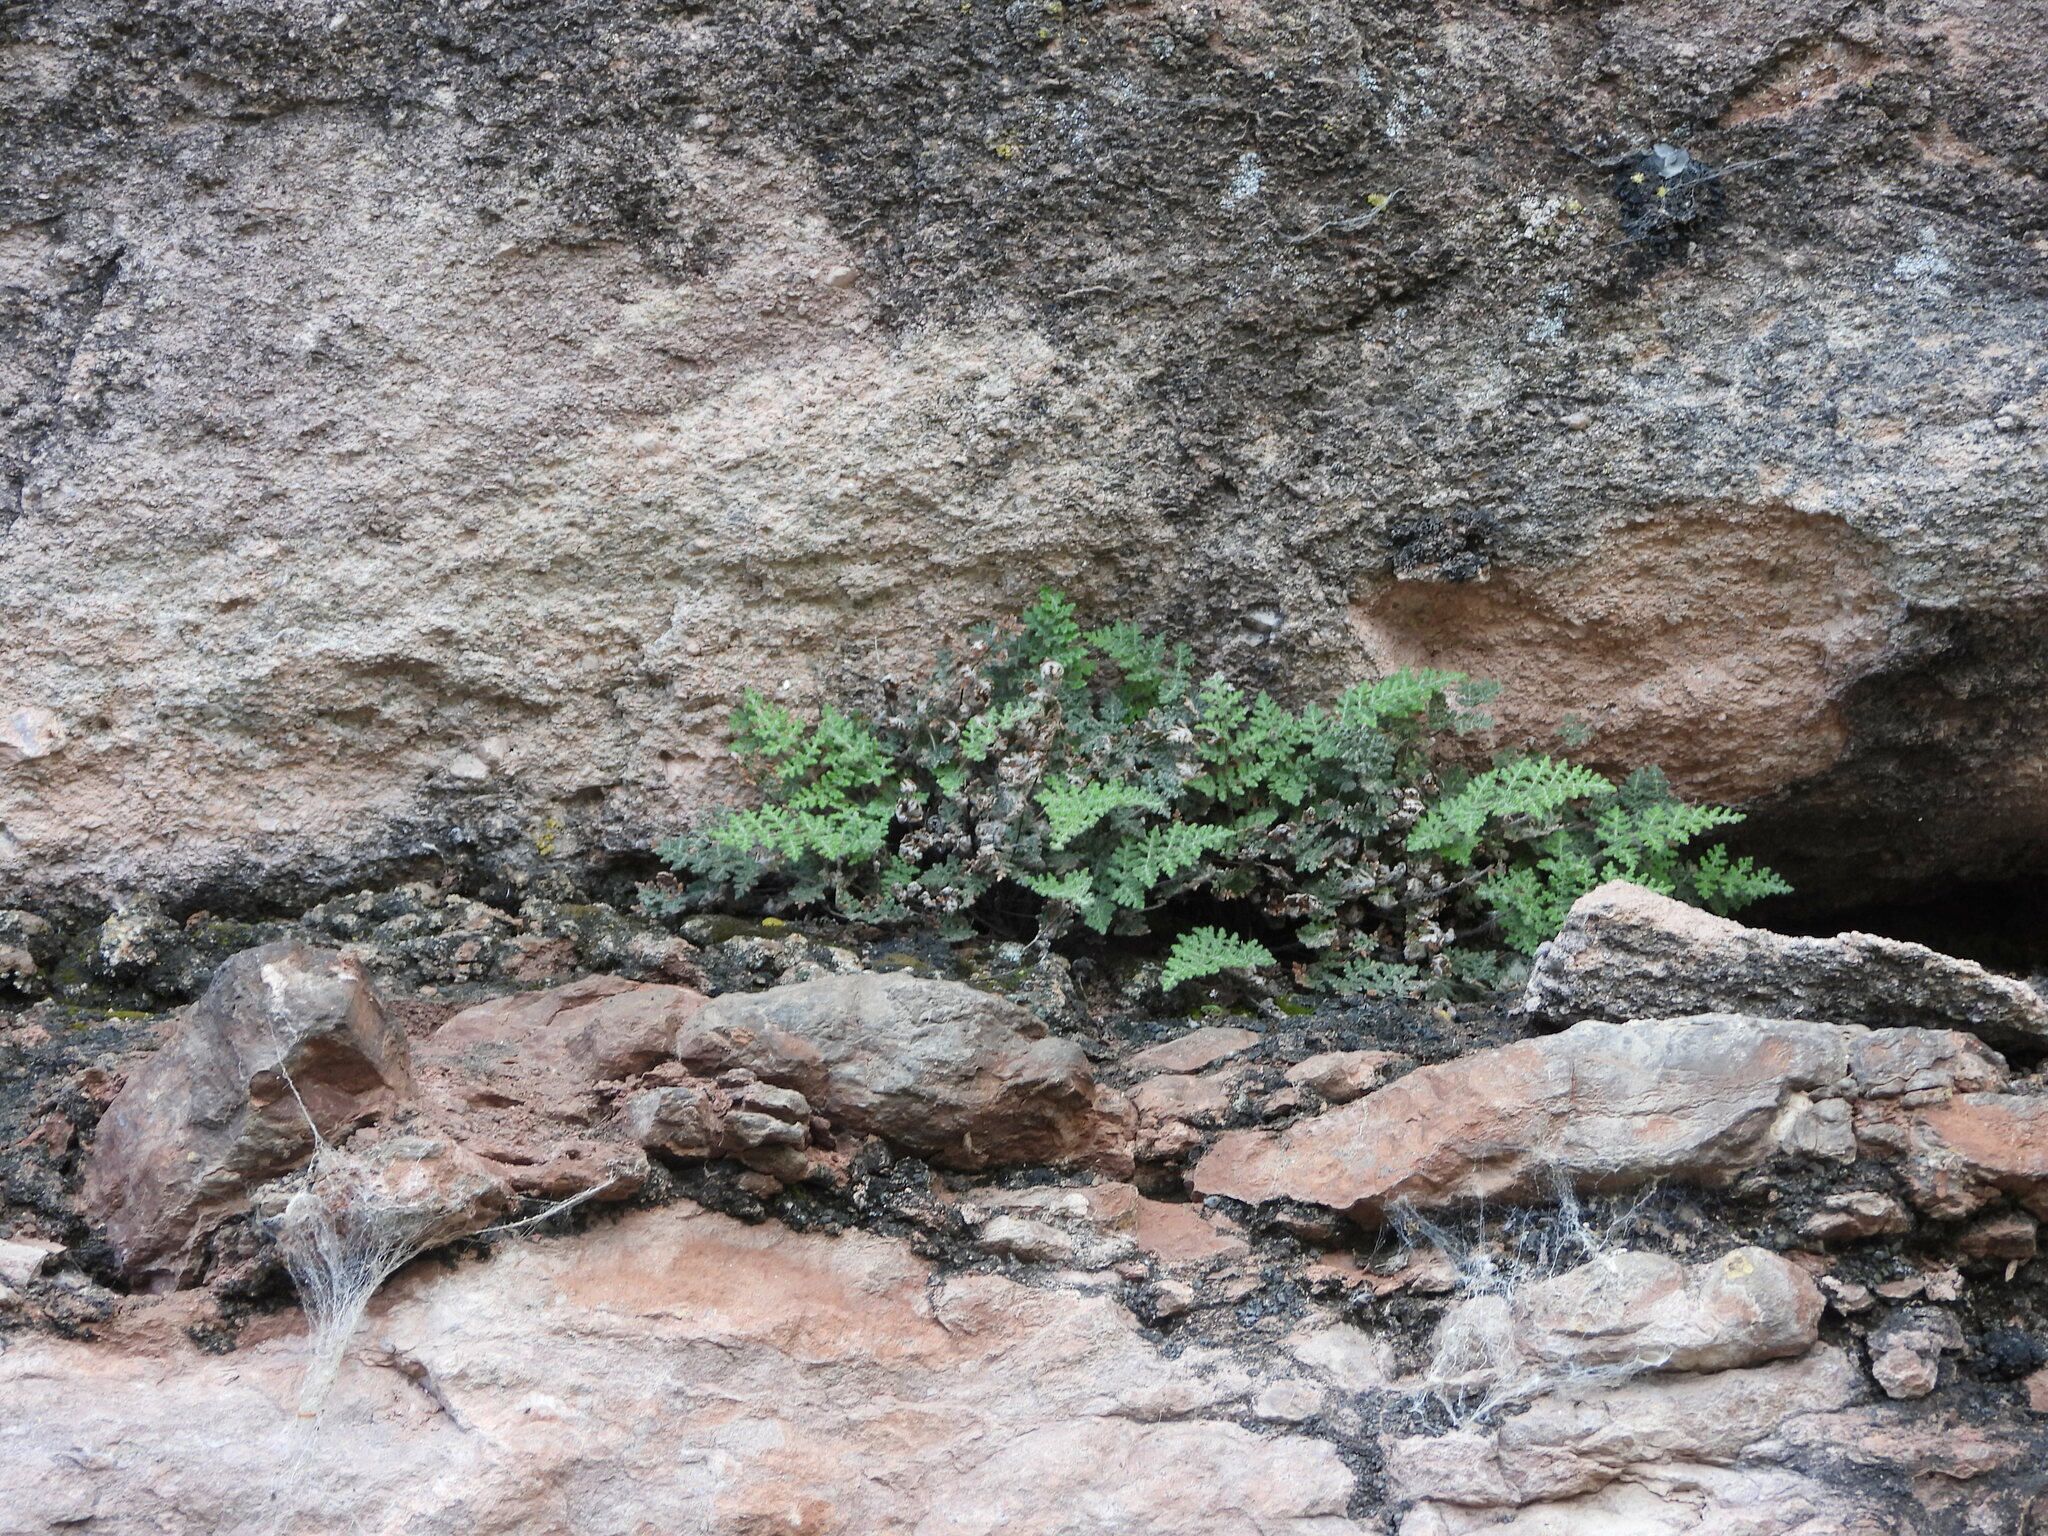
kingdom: Plantae
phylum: Tracheophyta
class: Polypodiopsida
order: Polypodiales
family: Pteridaceae
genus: Myriopteris
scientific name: Myriopteris gracilis
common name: Fee's lip fern
